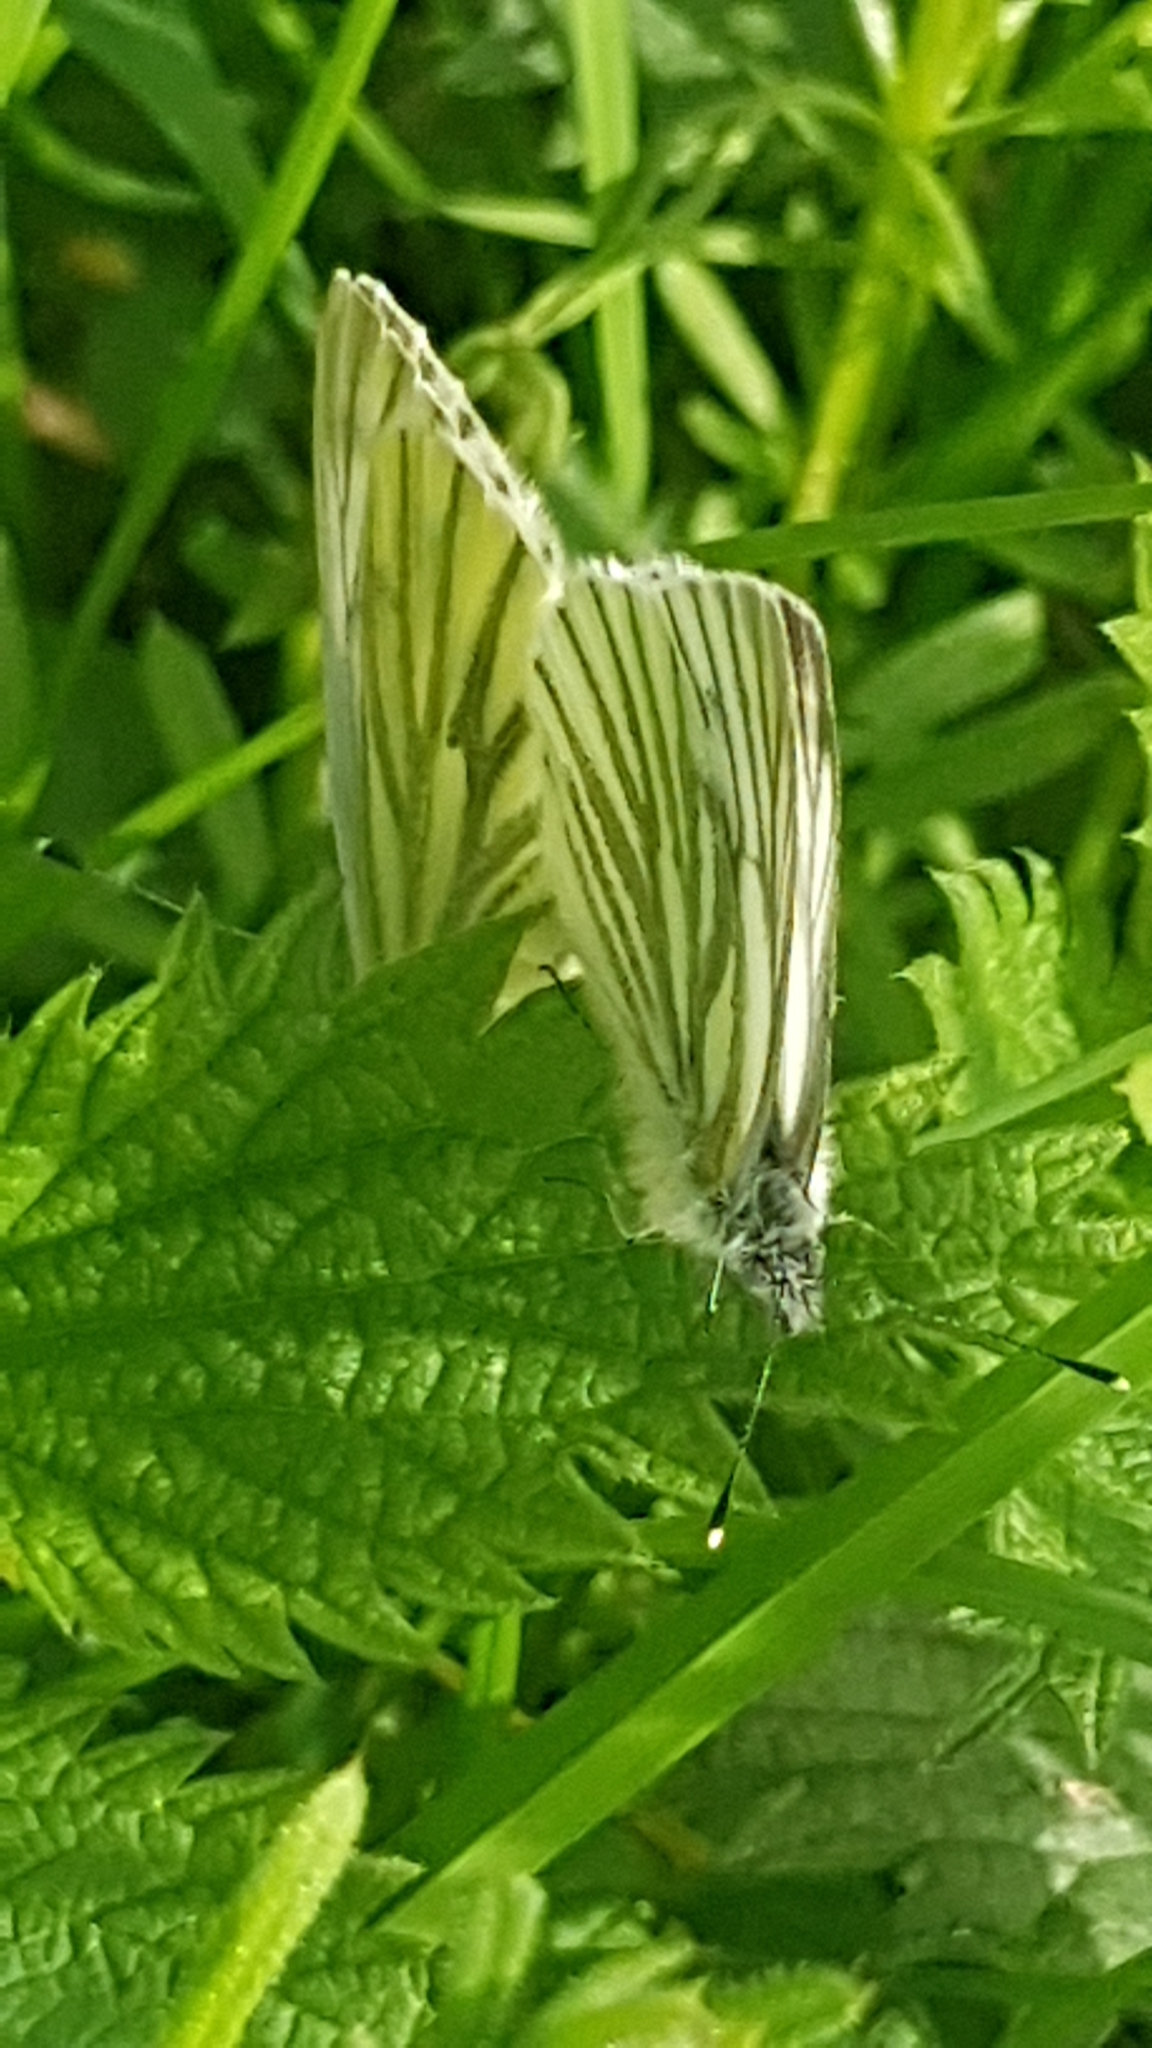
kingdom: Animalia
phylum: Arthropoda
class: Insecta
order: Lepidoptera
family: Pieridae
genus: Pieris
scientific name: Pieris napi
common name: Green-veined white
